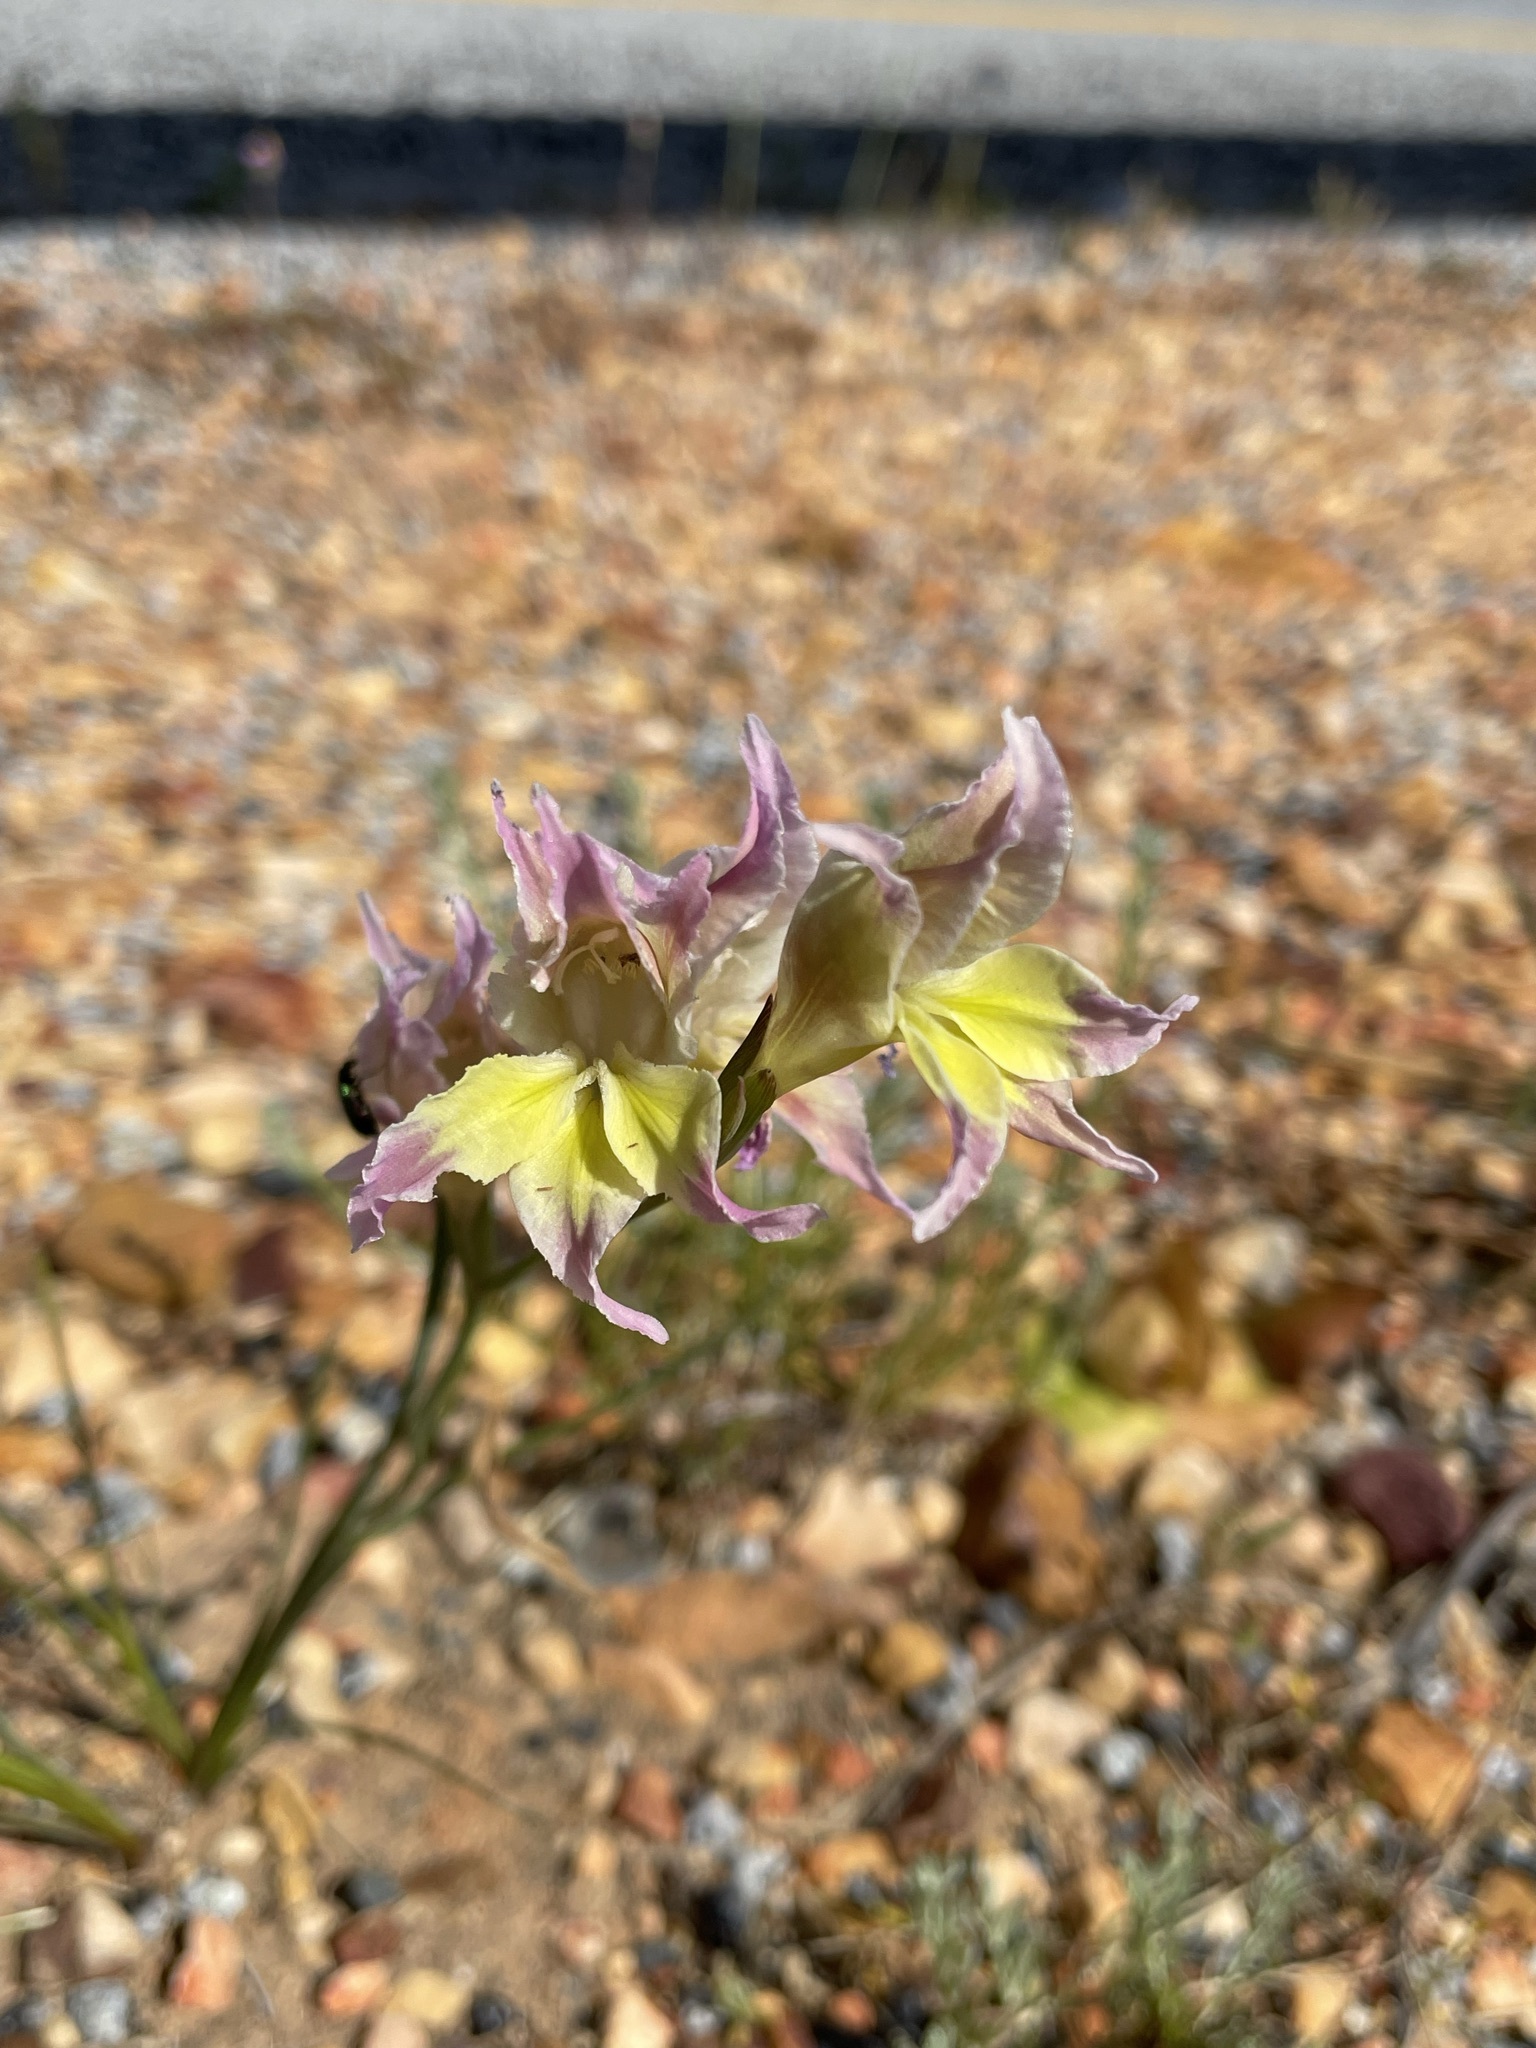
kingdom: Plantae
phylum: Tracheophyta
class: Liliopsida
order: Asparagales
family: Iridaceae
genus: Gladiolus
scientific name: Gladiolus venustus
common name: Purple kalkoentjie
